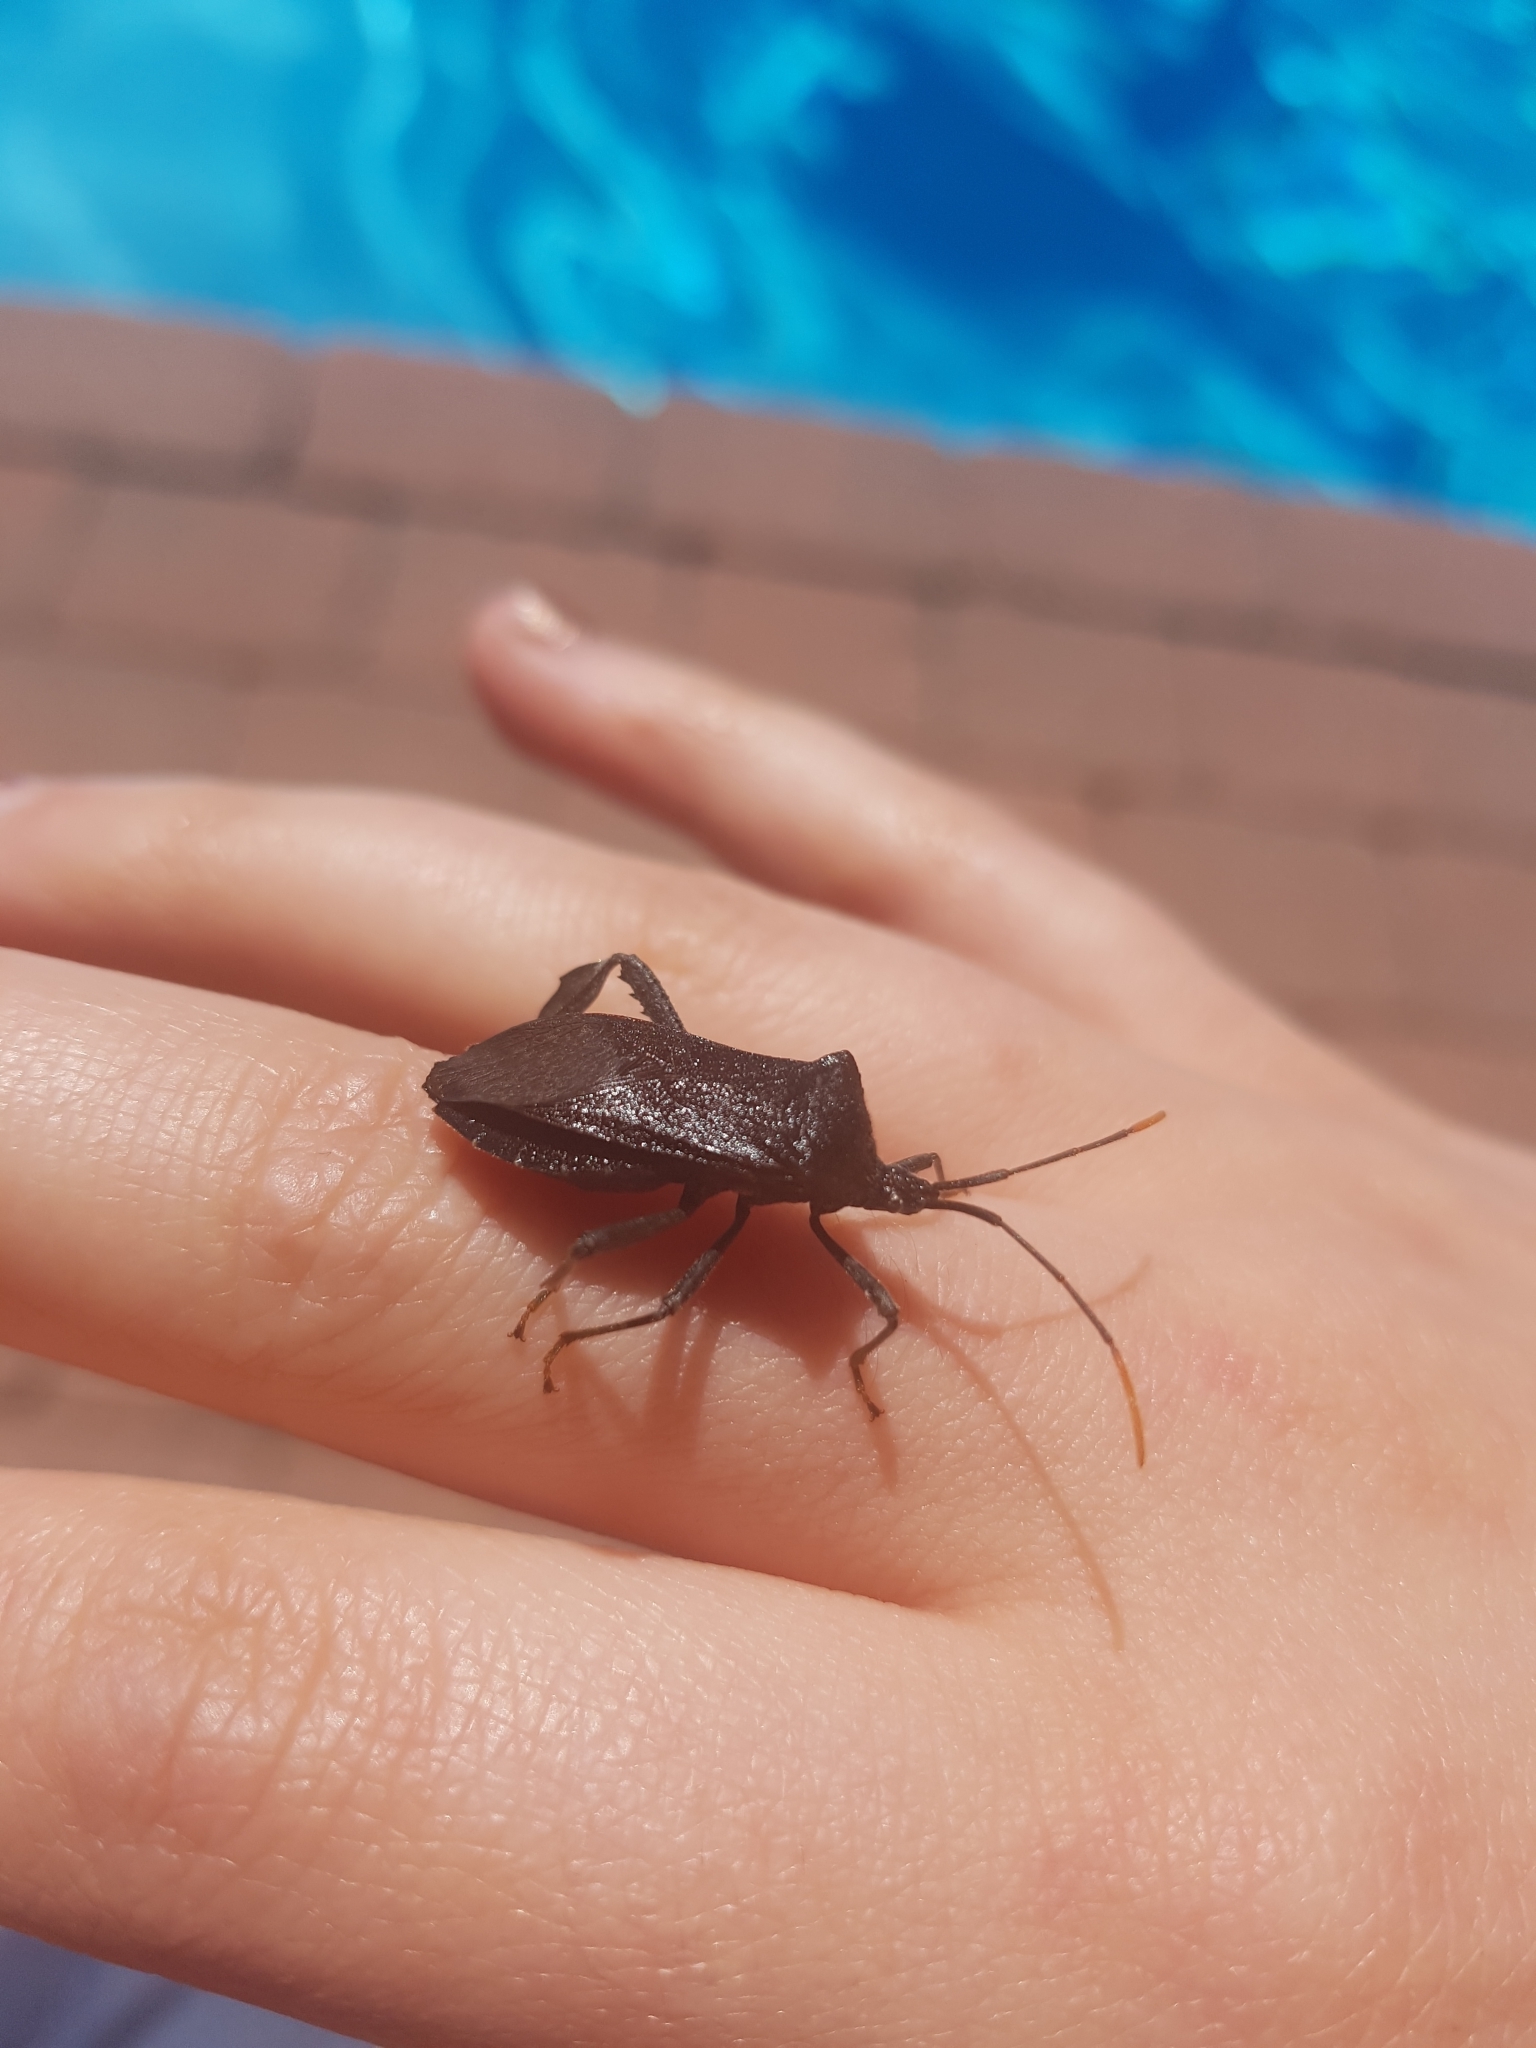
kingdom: Animalia
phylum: Arthropoda
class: Insecta
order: Hemiptera
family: Coreidae
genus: Acanthocephala
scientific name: Acanthocephala terminalis
